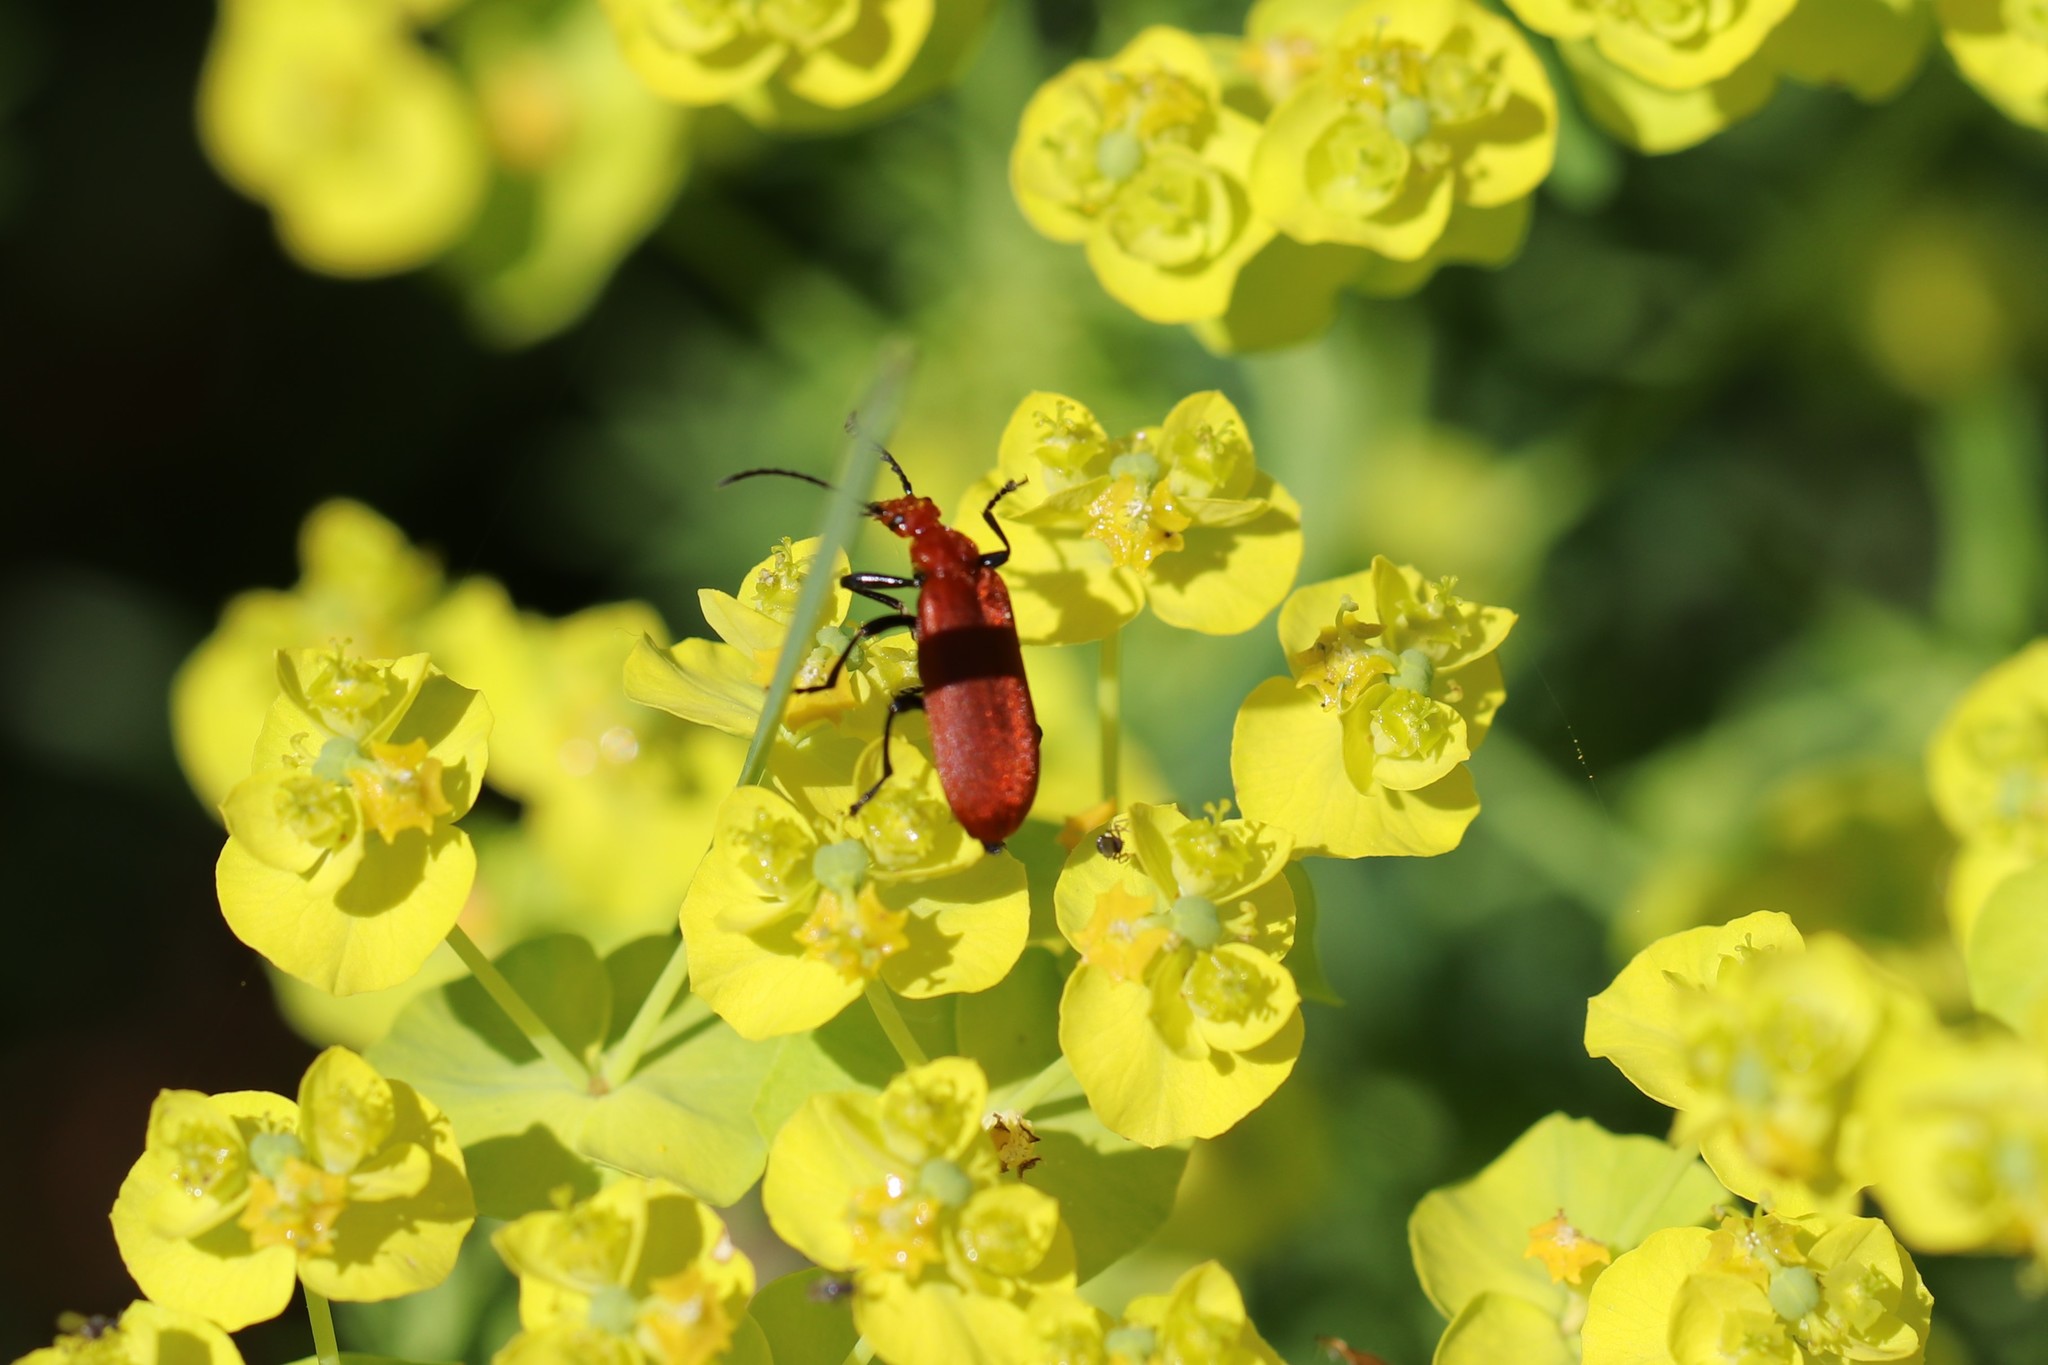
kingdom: Animalia
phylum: Arthropoda
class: Insecta
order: Coleoptera
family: Pyrochroidae
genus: Pyrochroa
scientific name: Pyrochroa serraticornis
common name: Red-headed cardinal beetle
